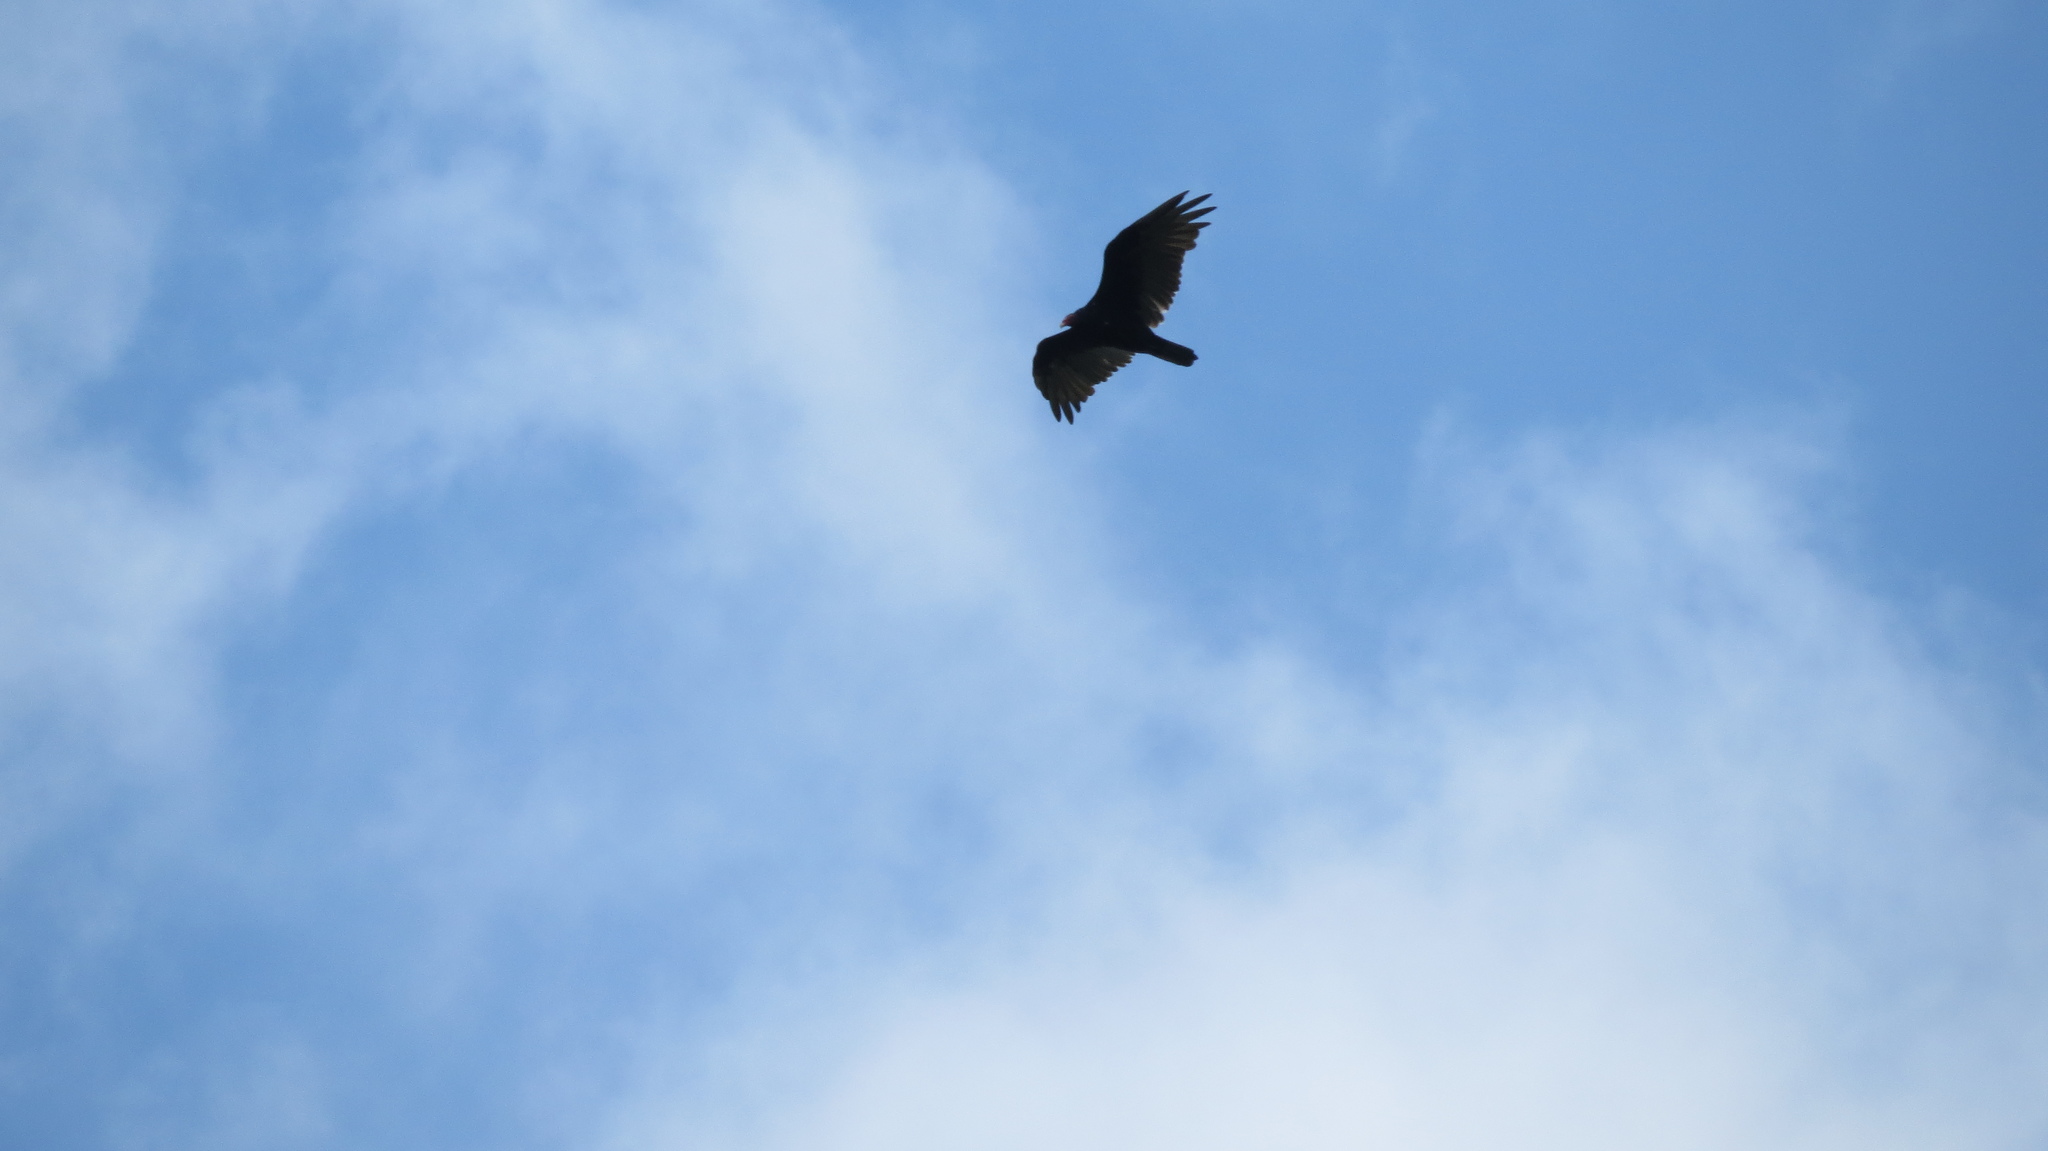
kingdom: Animalia
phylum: Chordata
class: Aves
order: Accipitriformes
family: Cathartidae
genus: Cathartes
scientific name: Cathartes aura
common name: Turkey vulture
